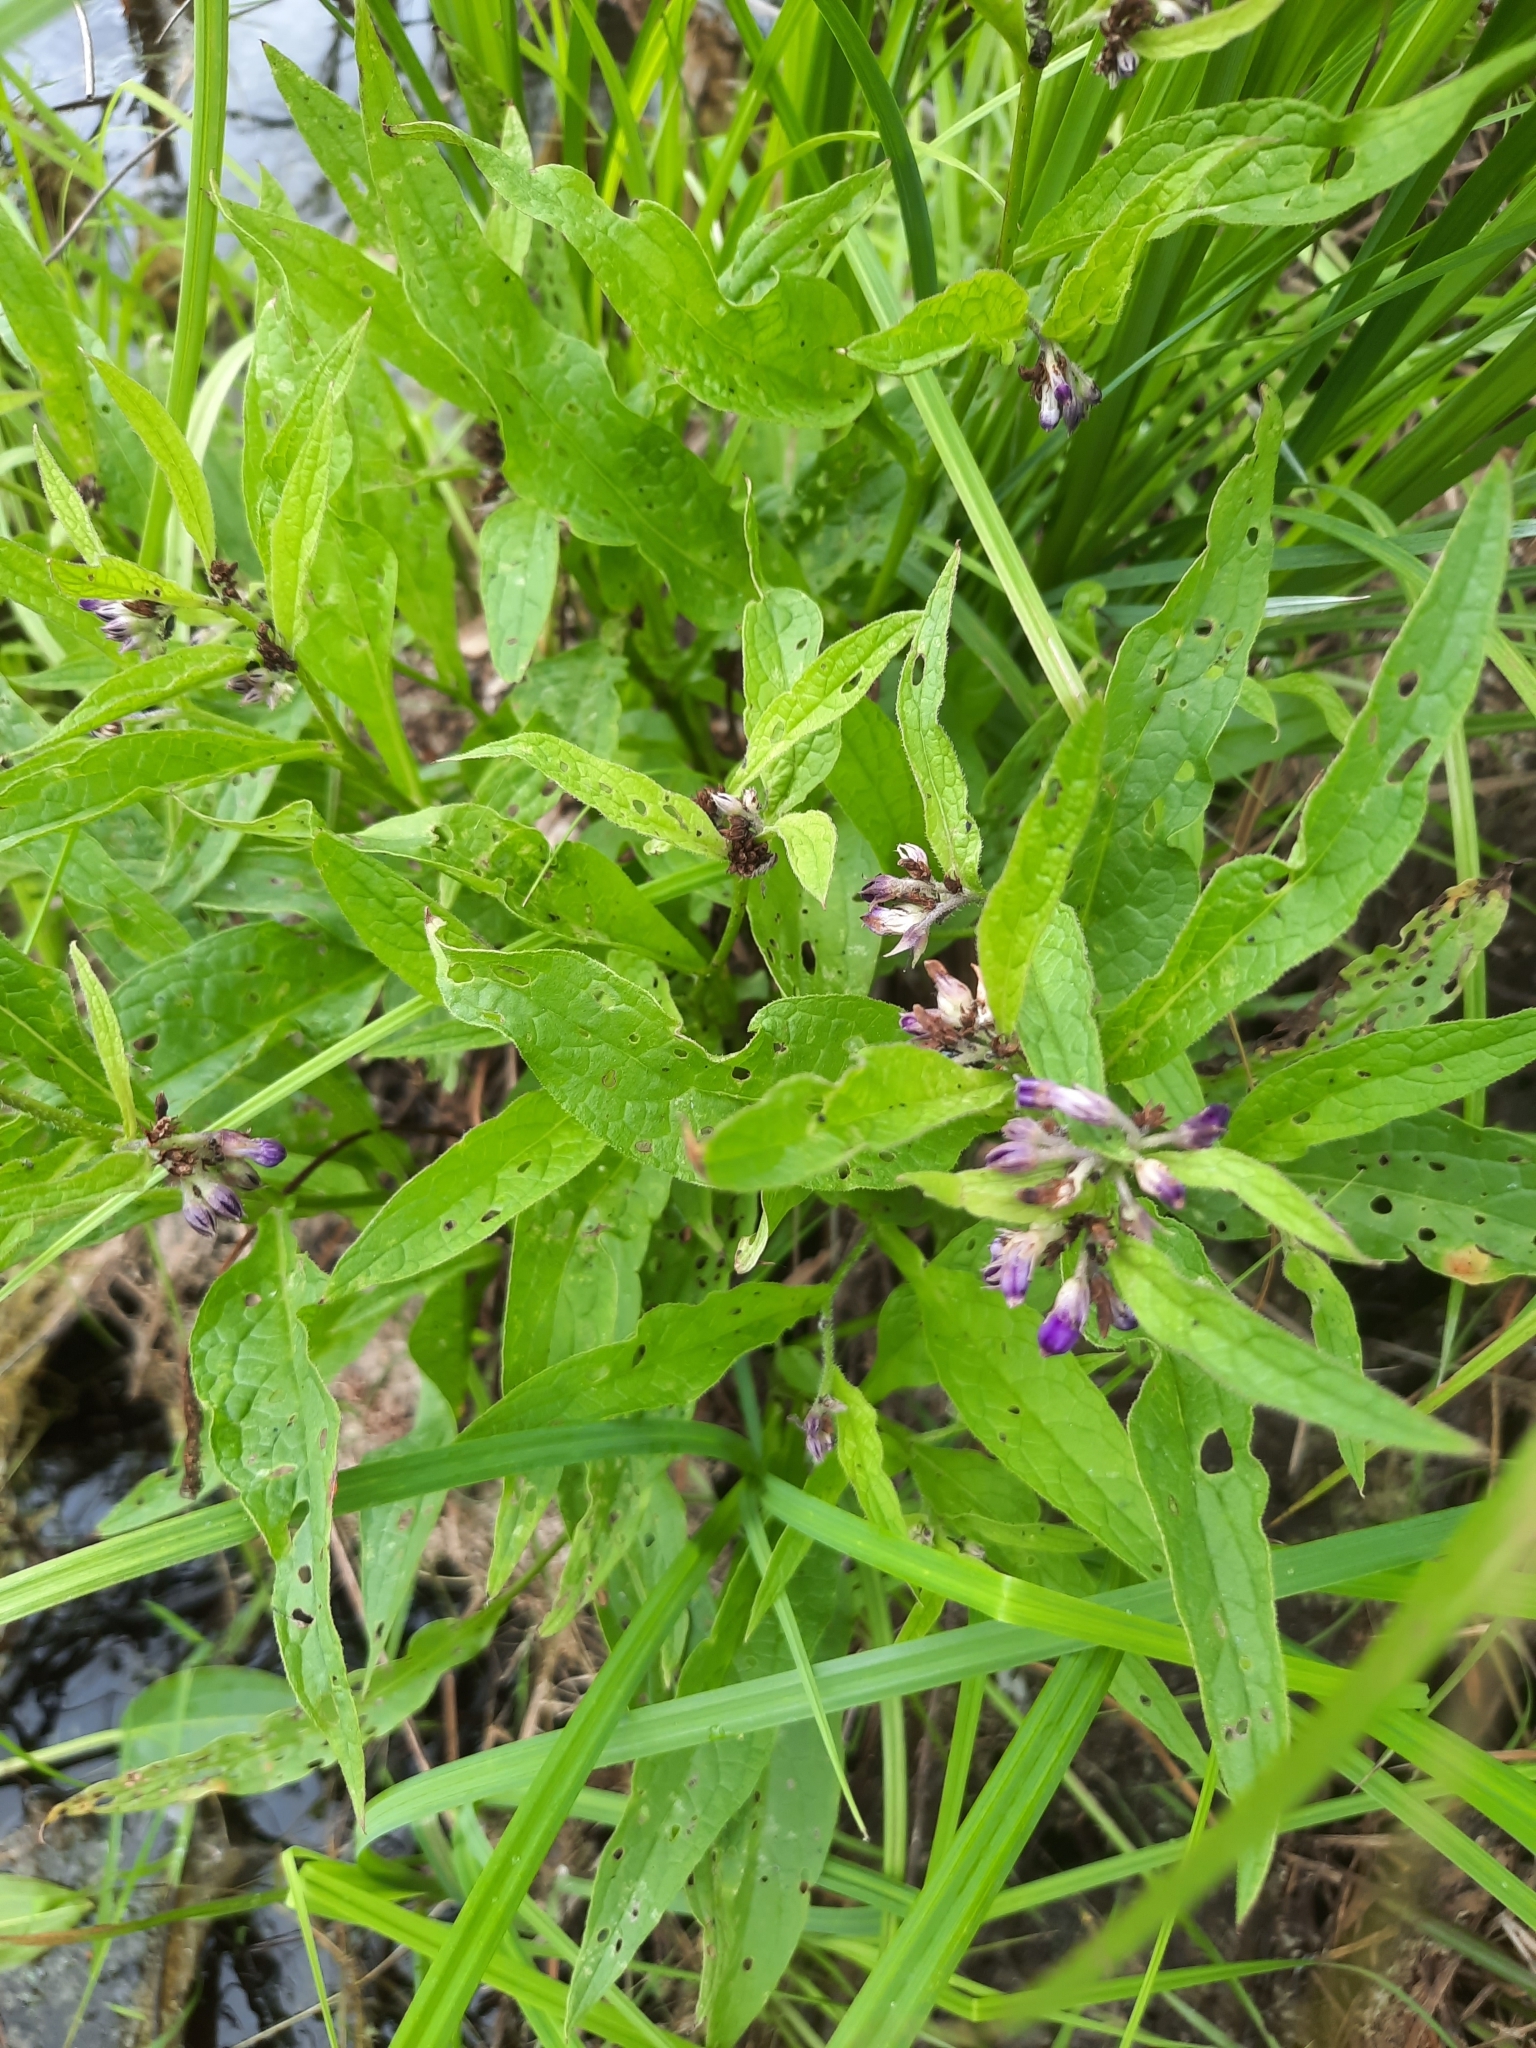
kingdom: Plantae
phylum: Tracheophyta
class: Magnoliopsida
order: Boraginales
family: Boraginaceae
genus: Symphytum
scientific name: Symphytum officinale
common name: Common comfrey
